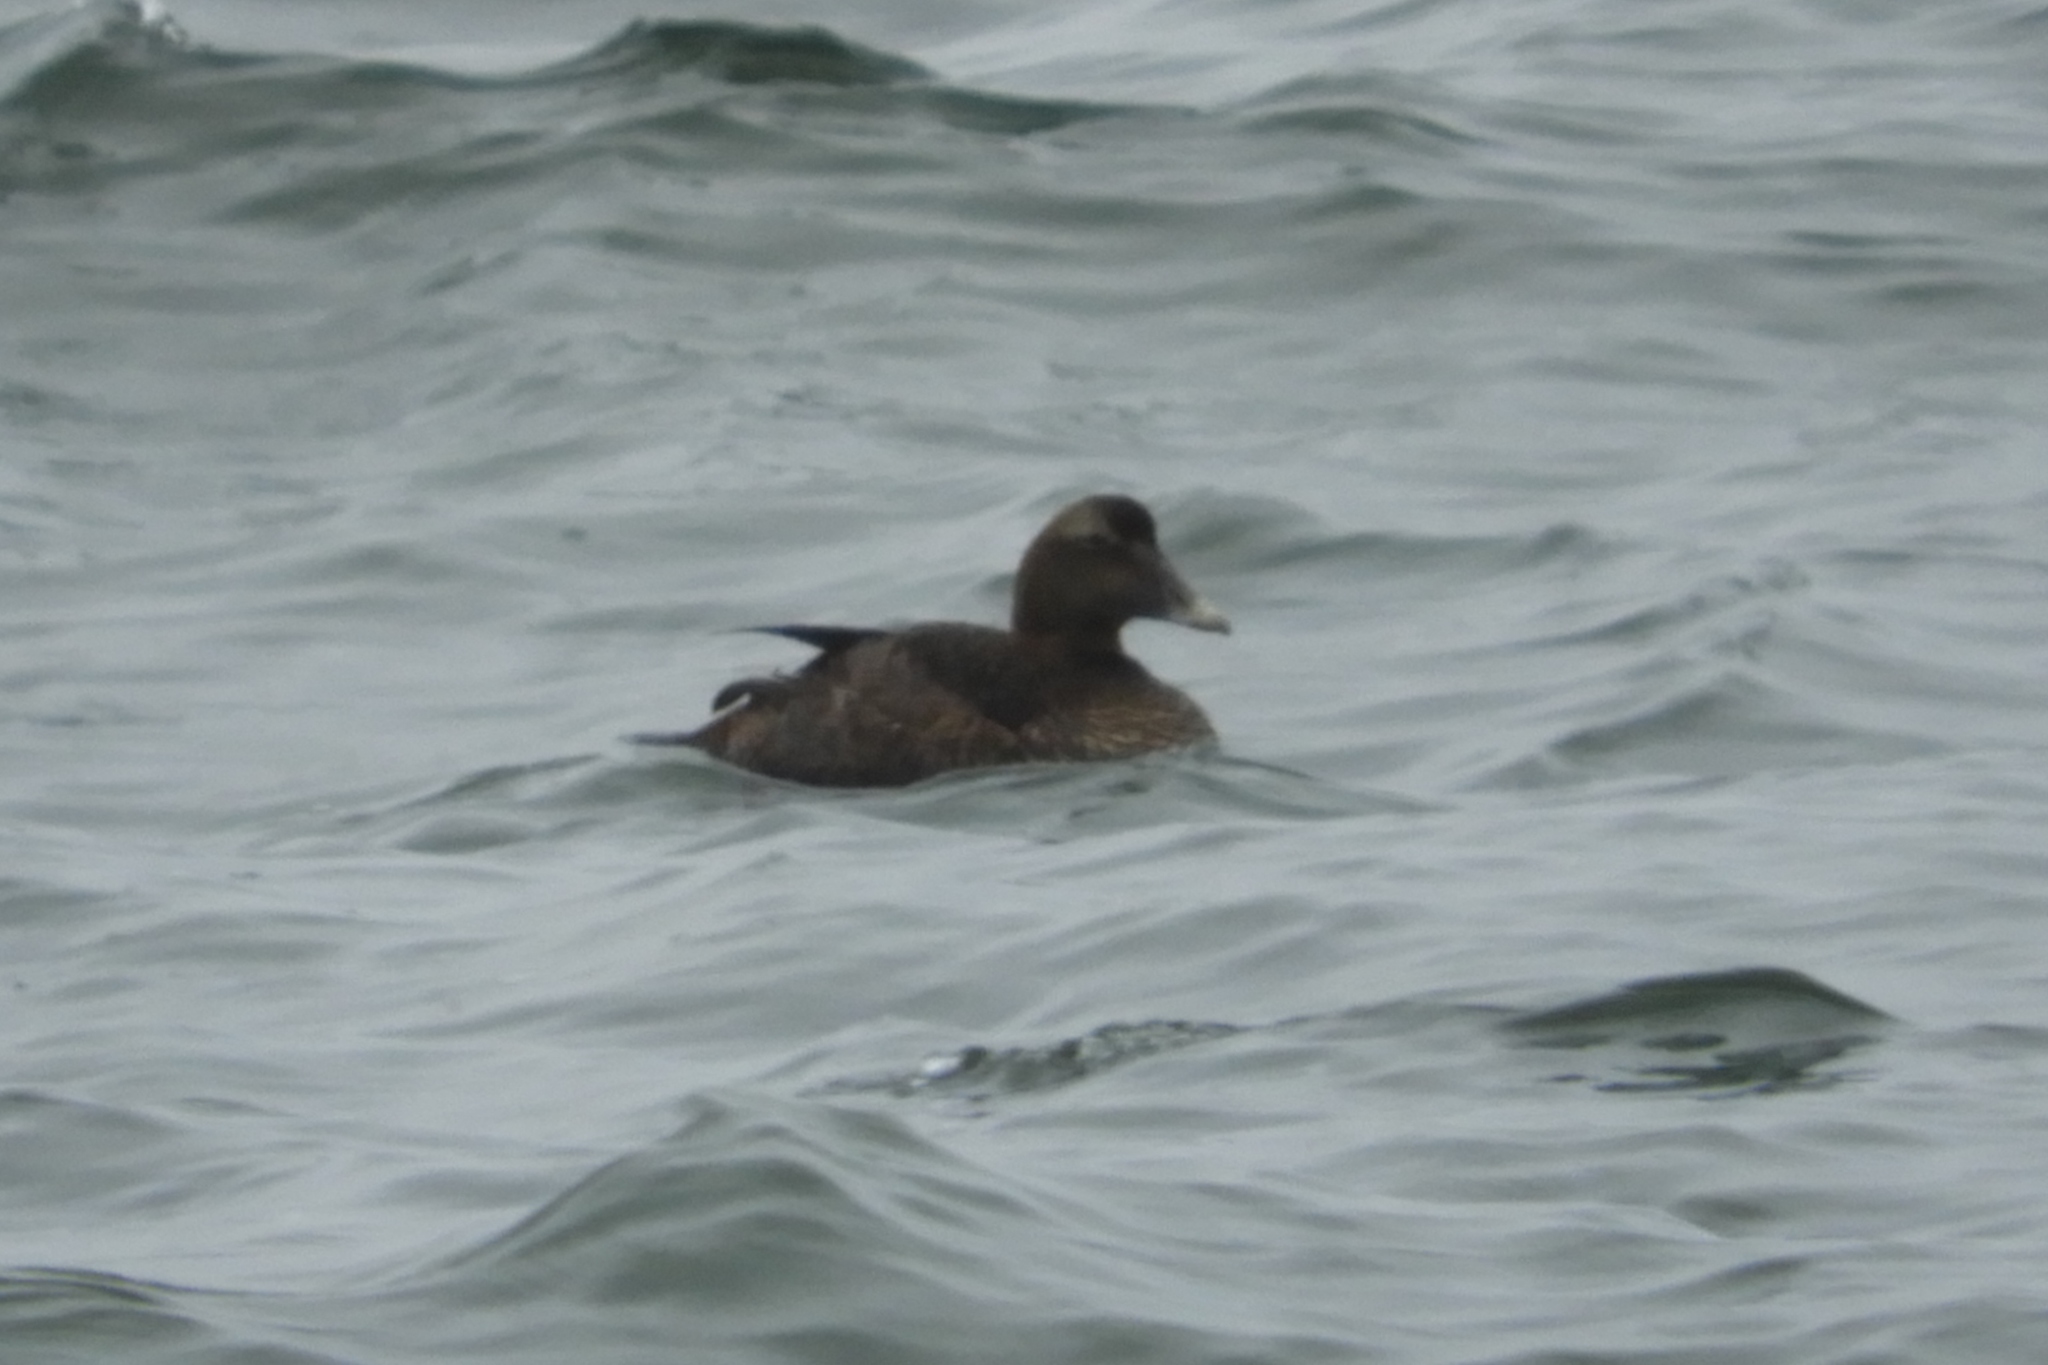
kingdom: Animalia
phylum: Chordata
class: Aves
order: Anseriformes
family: Anatidae
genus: Somateria
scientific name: Somateria mollissima
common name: Common eider
